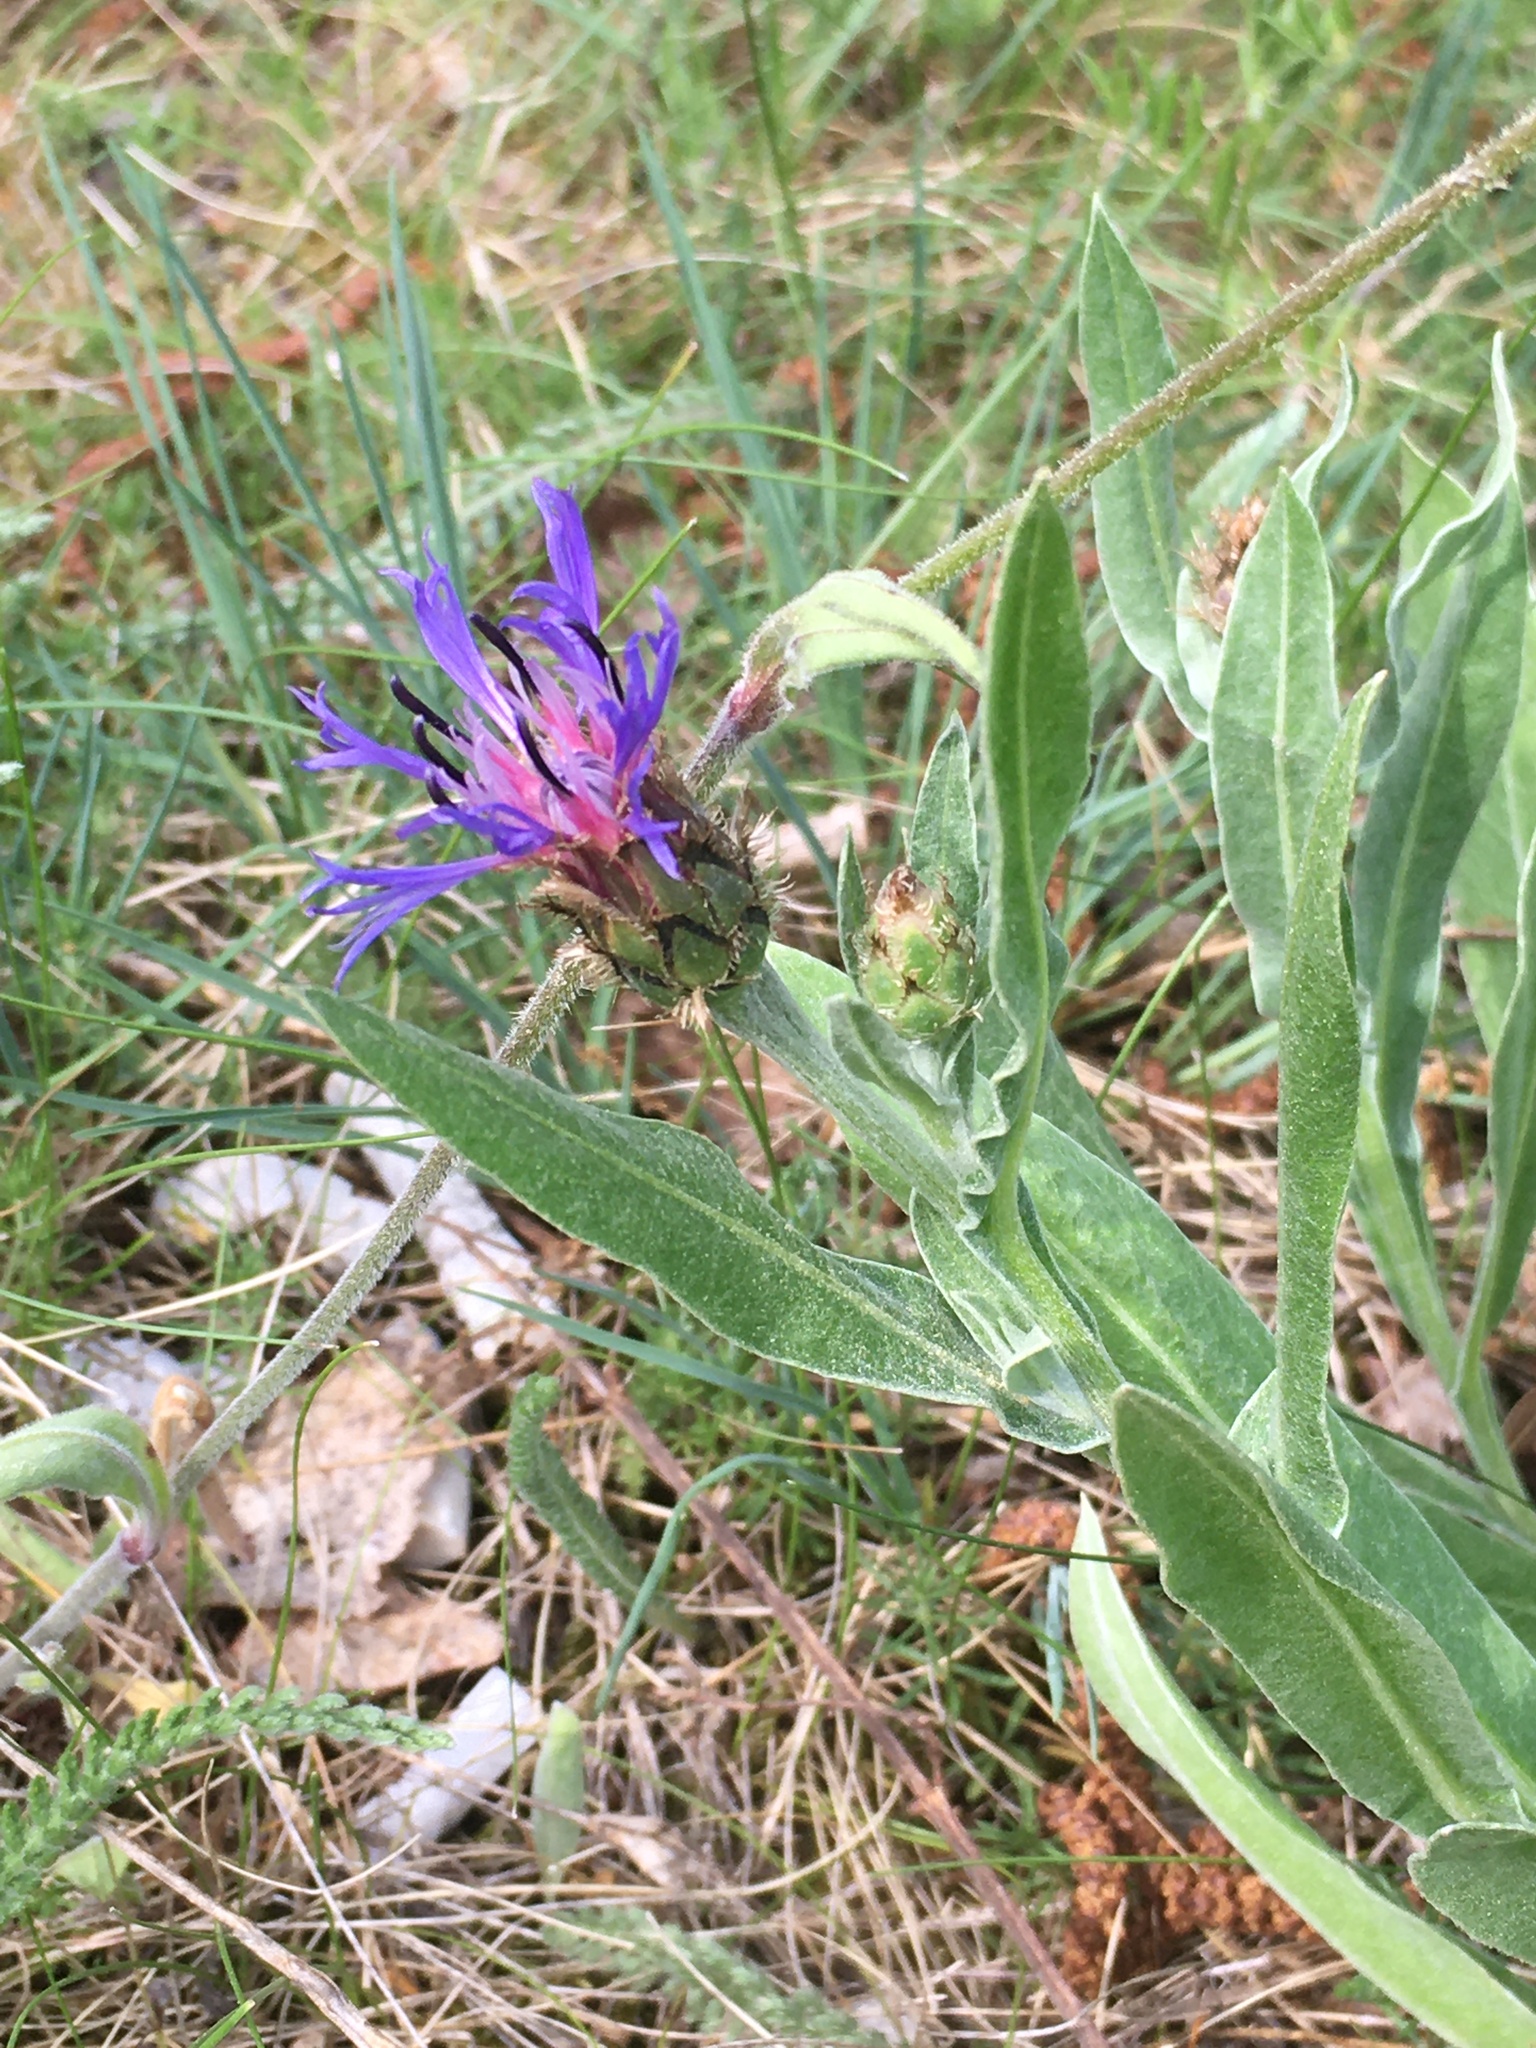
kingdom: Plantae
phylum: Tracheophyta
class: Magnoliopsida
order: Asterales
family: Asteraceae
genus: Centaurea
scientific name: Centaurea triumfettii
